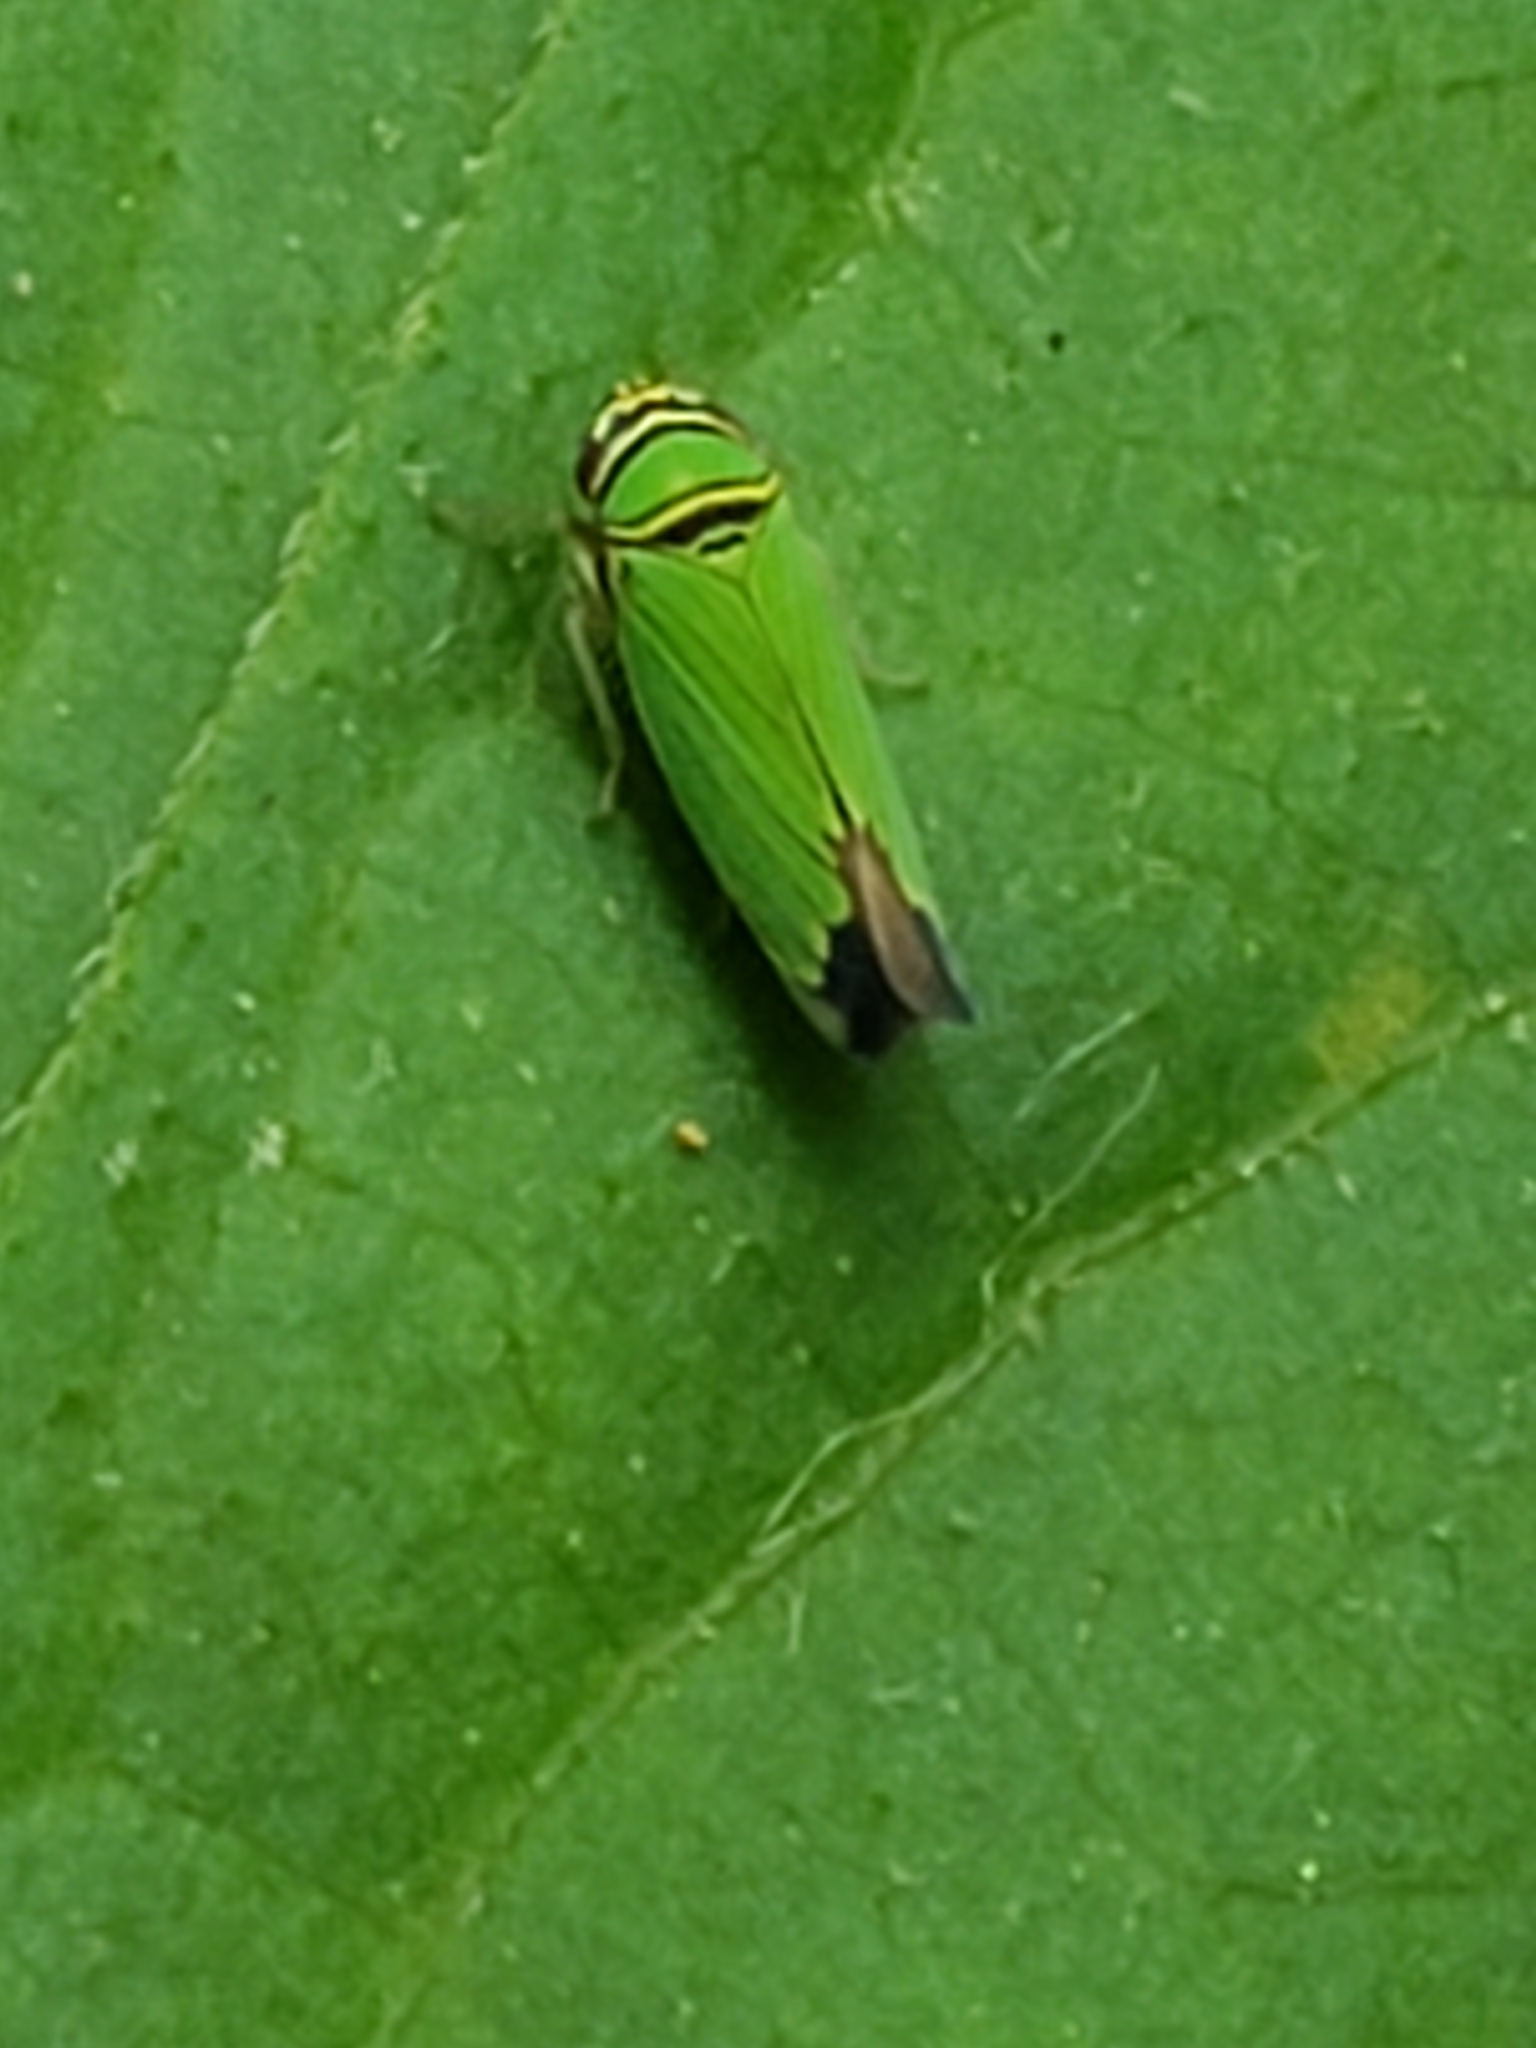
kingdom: Animalia
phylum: Arthropoda
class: Insecta
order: Hemiptera
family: Cicadellidae
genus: Tylozygus
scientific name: Tylozygus geometricus
